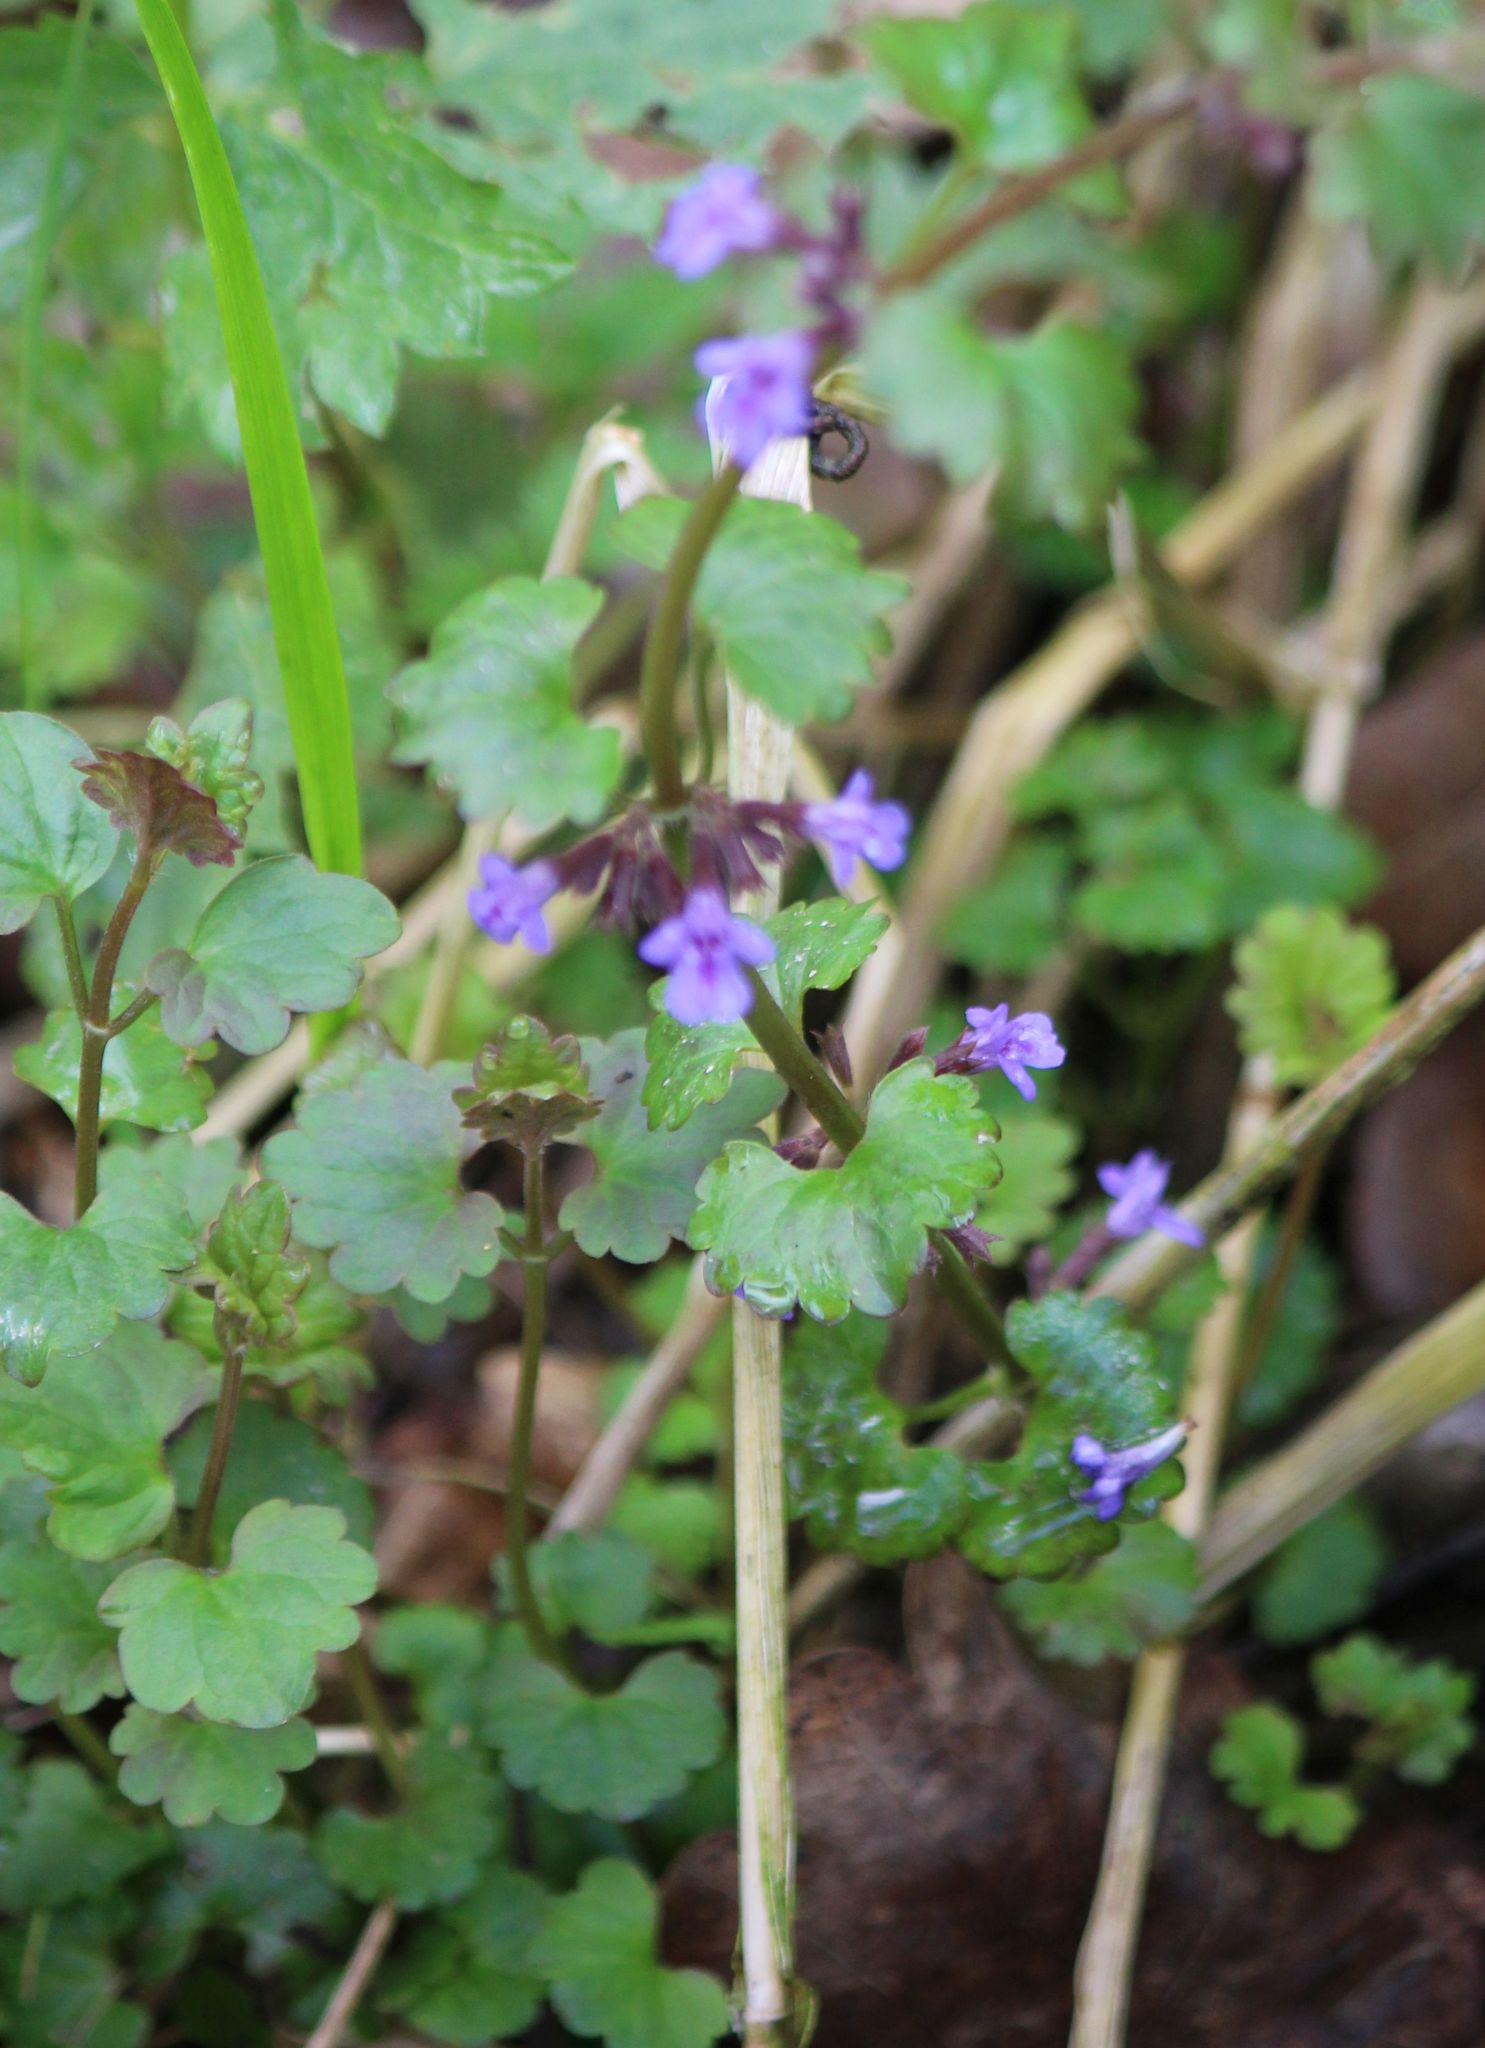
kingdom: Plantae
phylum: Tracheophyta
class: Magnoliopsida
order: Lamiales
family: Lamiaceae
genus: Glechoma
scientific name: Glechoma hederacea
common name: Ground ivy
